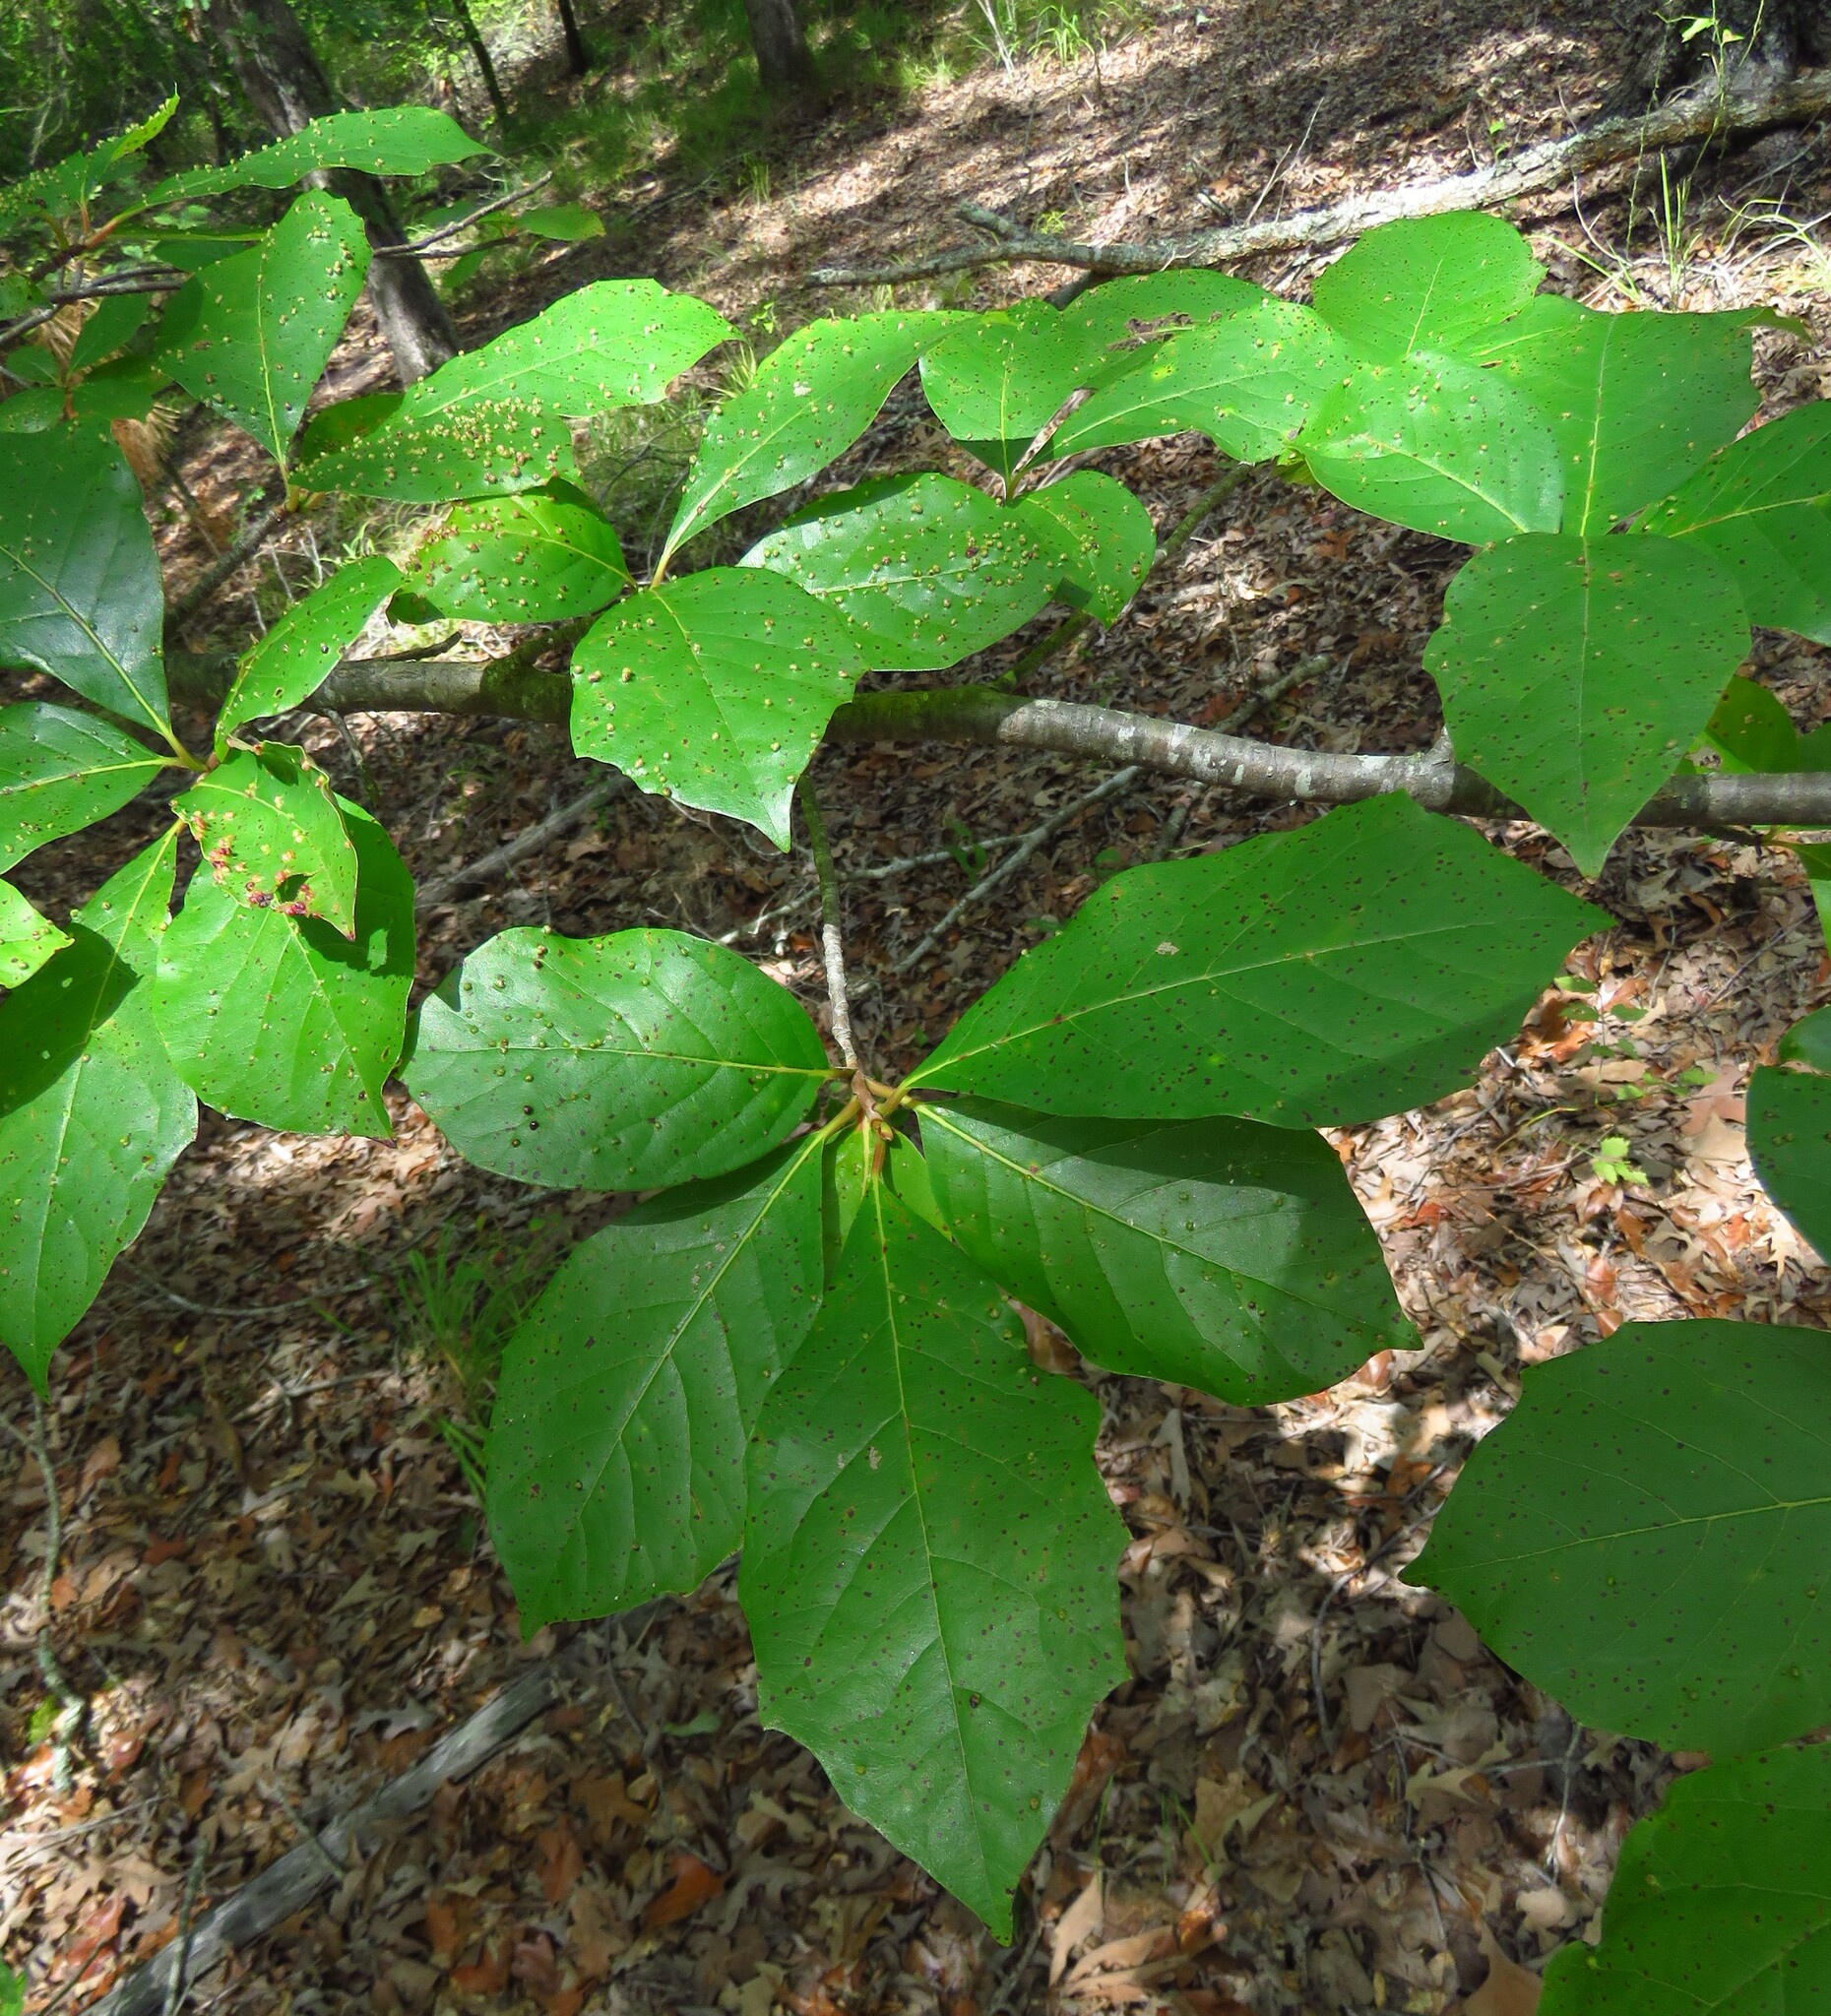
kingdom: Plantae
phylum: Tracheophyta
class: Magnoliopsida
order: Cornales
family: Nyssaceae
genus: Nyssa
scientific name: Nyssa sylvatica
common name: Black tupelo
